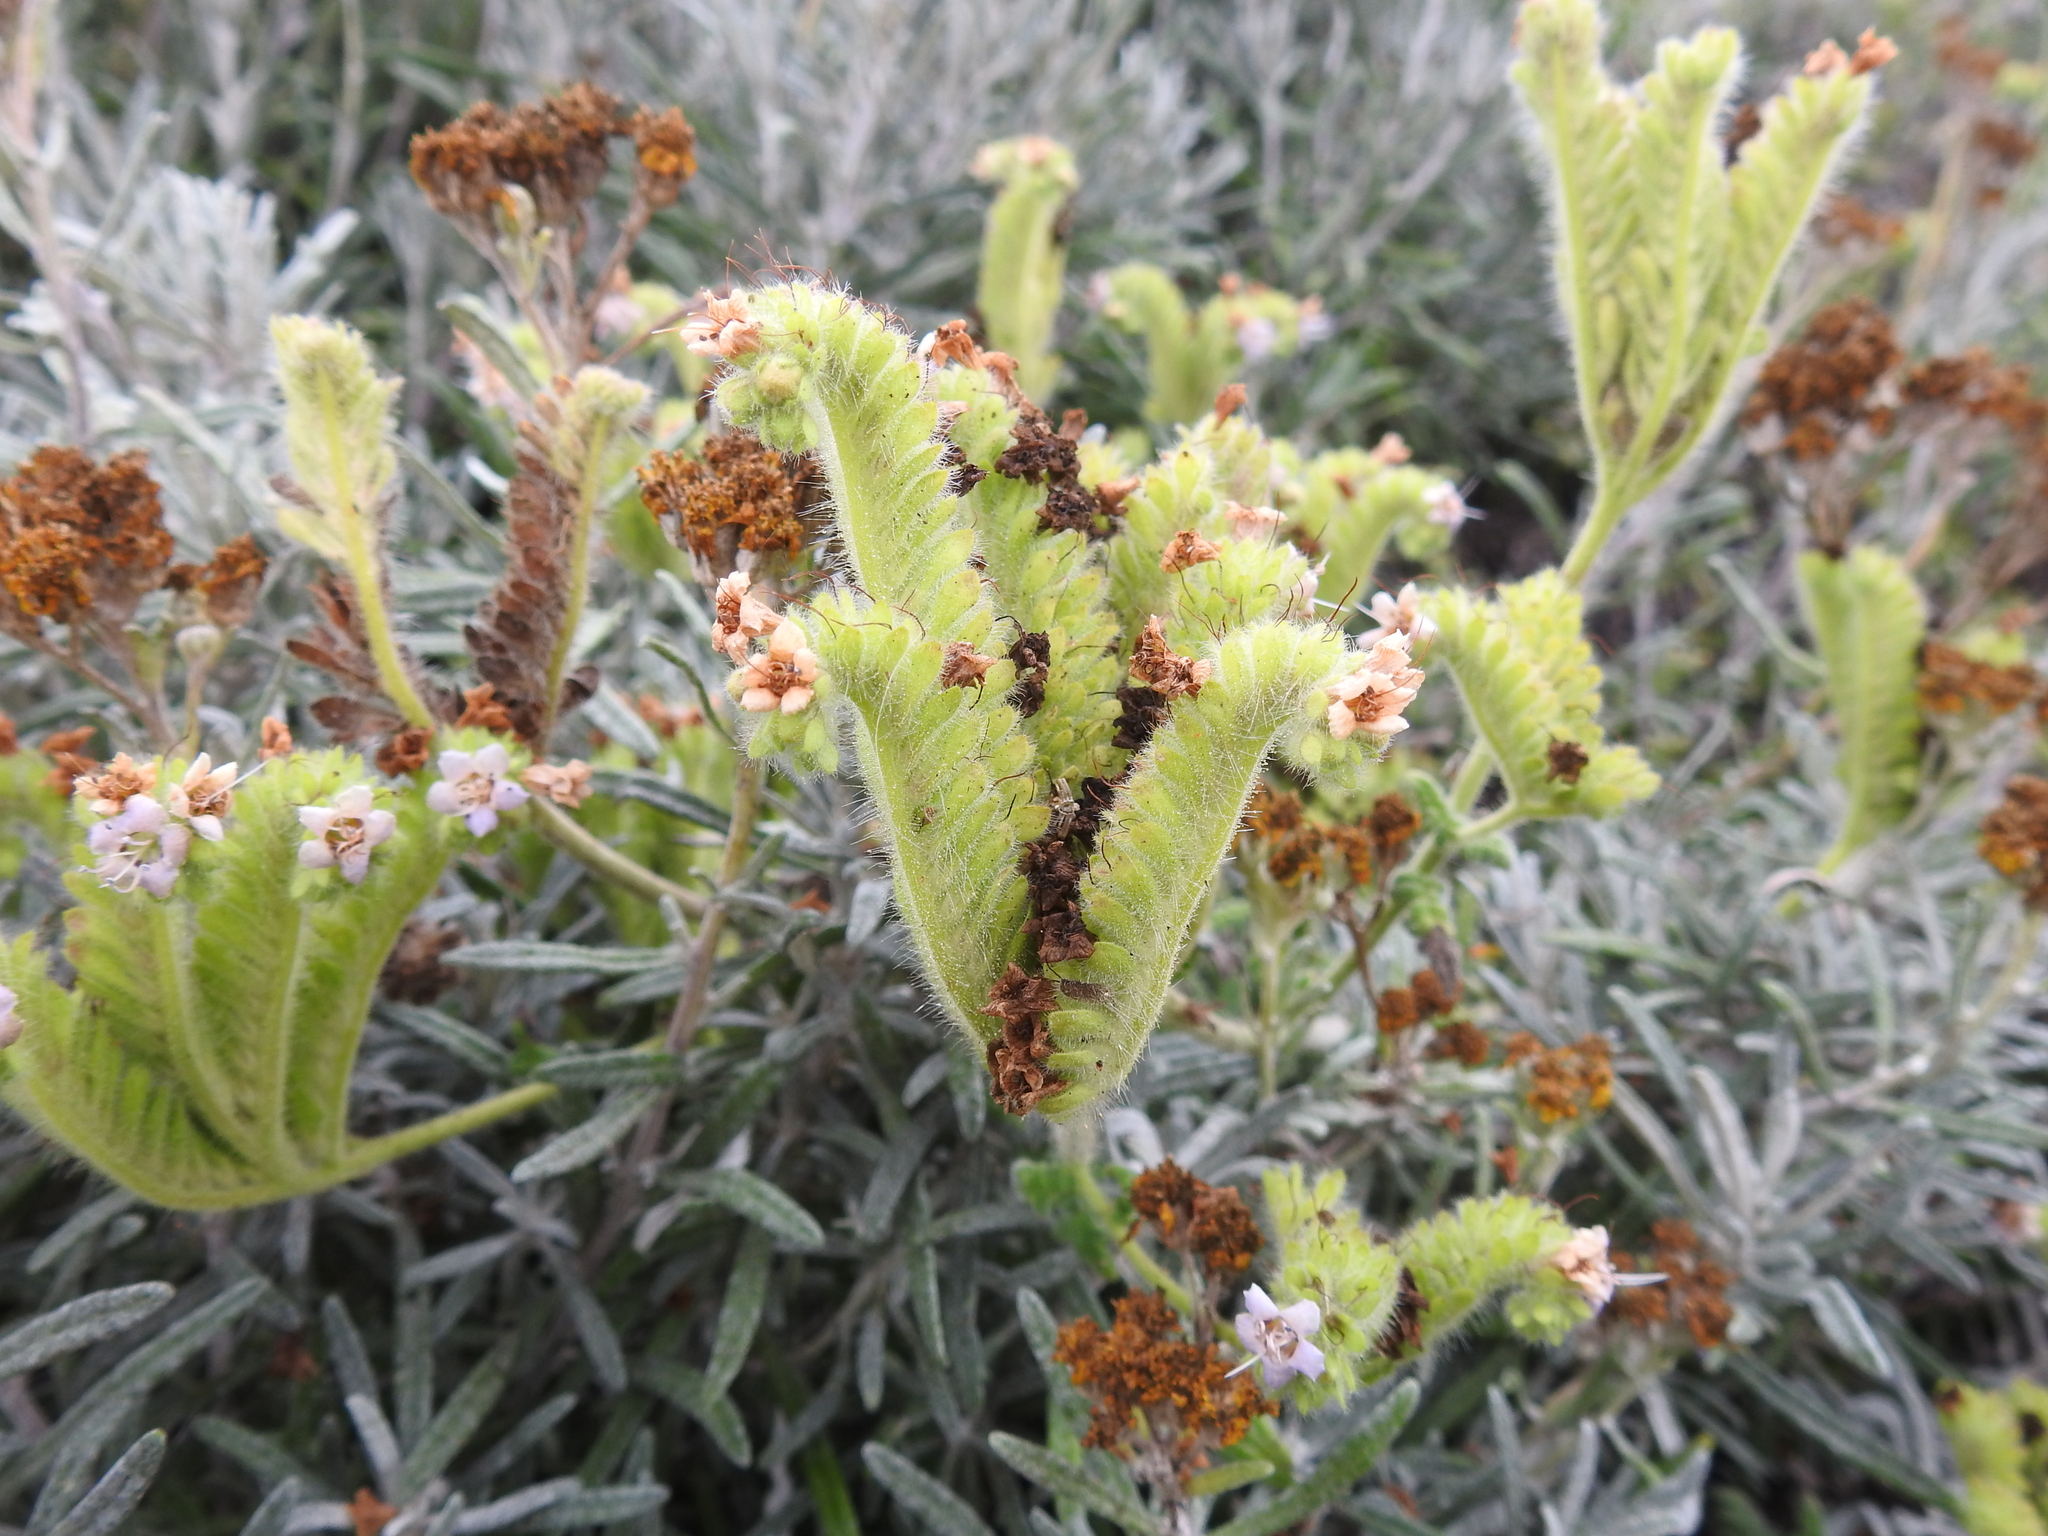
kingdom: Plantae
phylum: Tracheophyta
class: Magnoliopsida
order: Boraginales
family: Hydrophyllaceae
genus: Phacelia
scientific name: Phacelia ramosissima
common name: Branching phacelia
